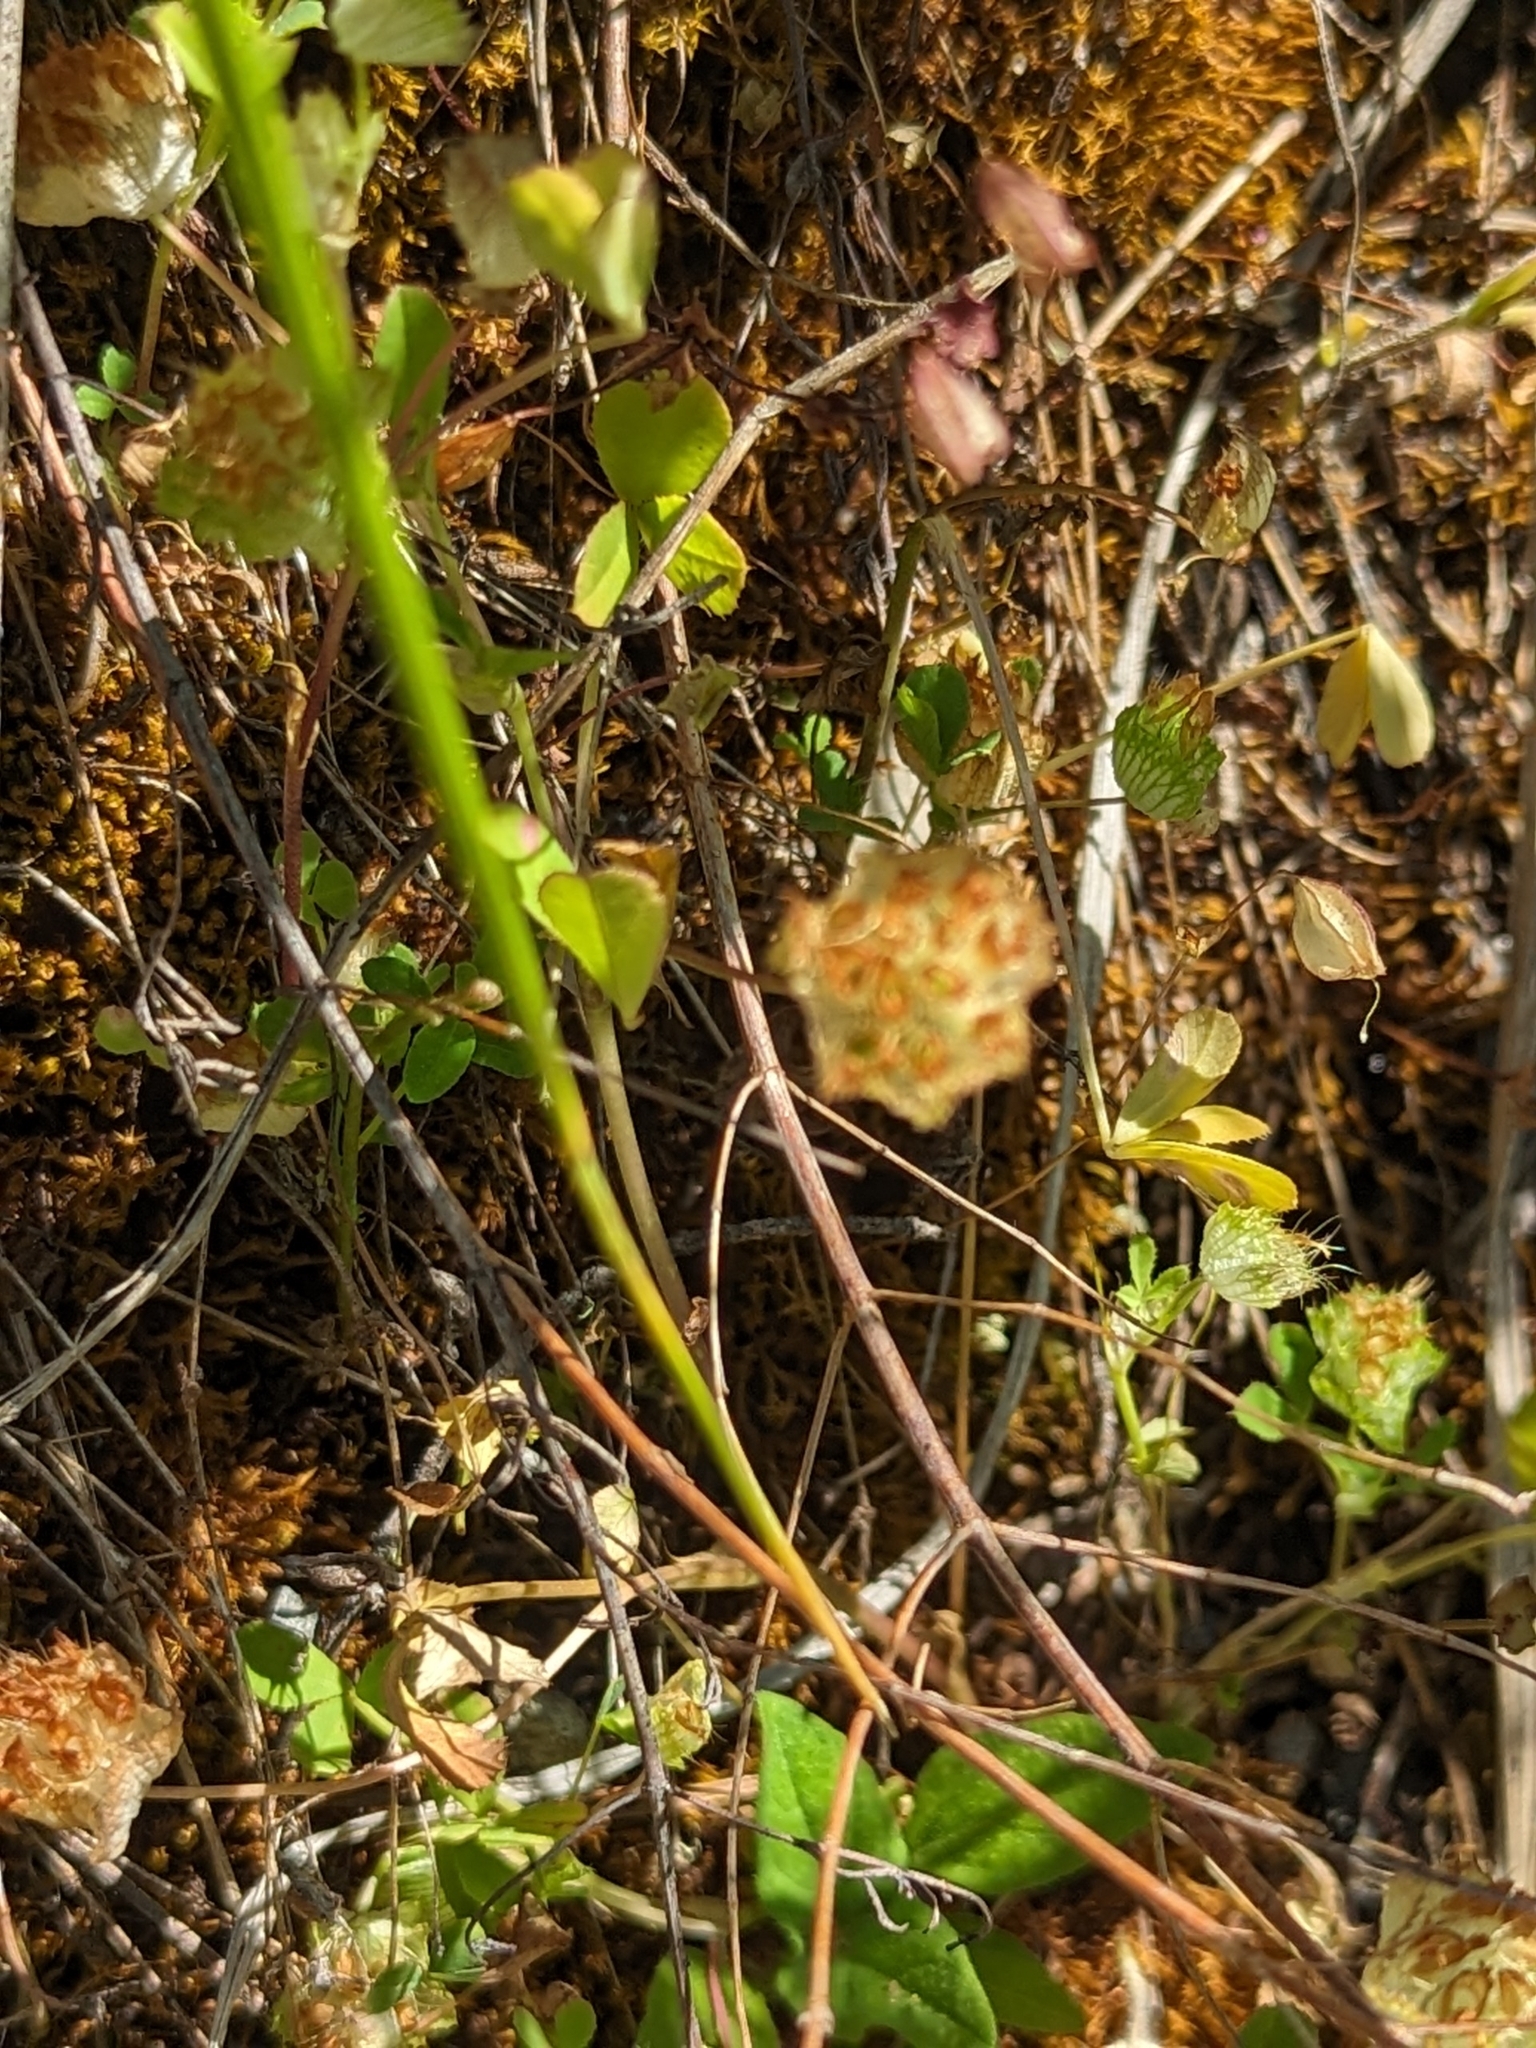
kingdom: Plantae
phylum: Tracheophyta
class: Magnoliopsida
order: Fabales
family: Fabaceae
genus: Trifolium
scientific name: Trifolium cyathiferum
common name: Bowl clover
